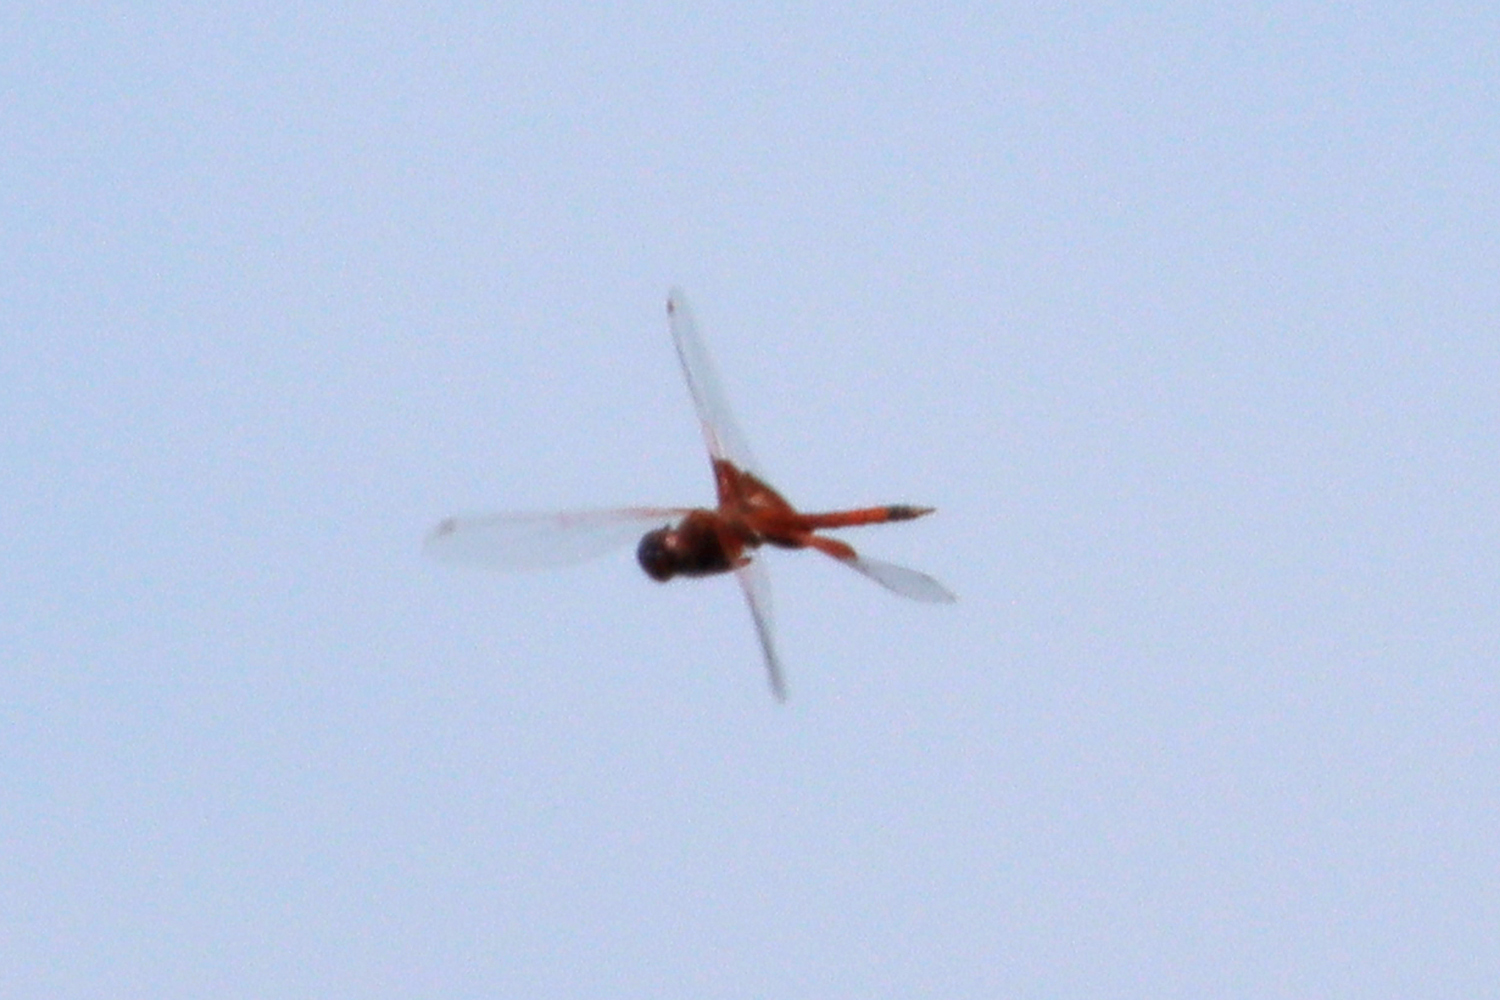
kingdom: Animalia
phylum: Arthropoda
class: Insecta
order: Odonata
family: Libellulidae
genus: Tramea
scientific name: Tramea carolina
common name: Carolina saddlebags
